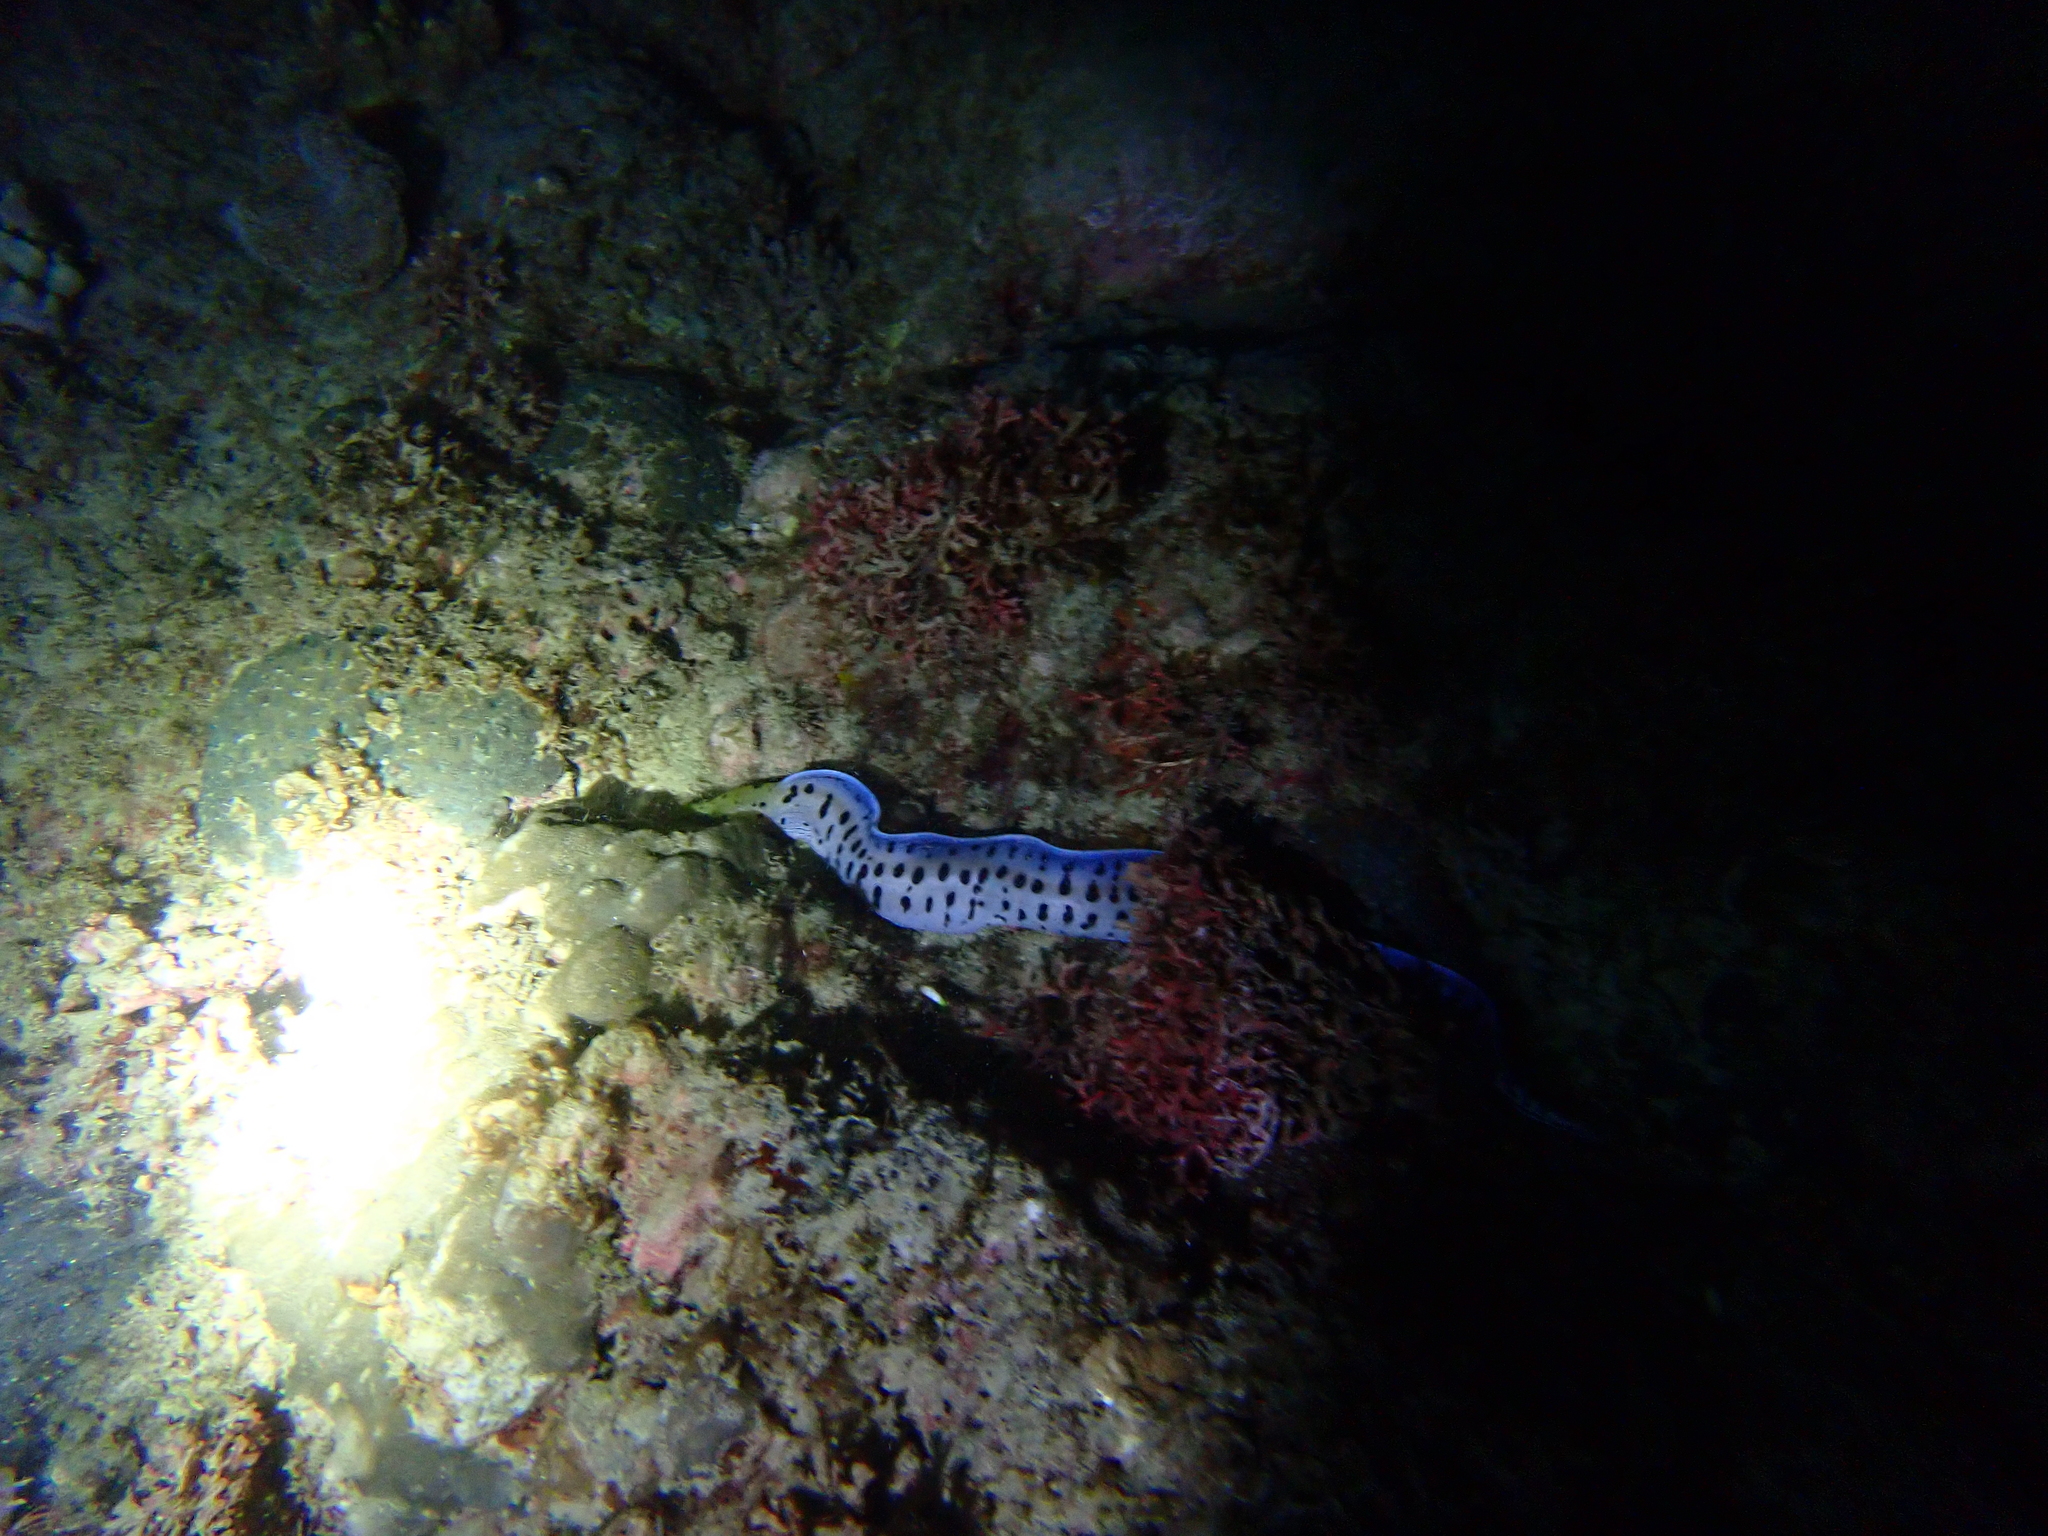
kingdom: Animalia
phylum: Chordata
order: Anguilliformes
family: Muraenidae
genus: Gymnothorax
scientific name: Gymnothorax fimbriatus
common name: Darkspotted moray
